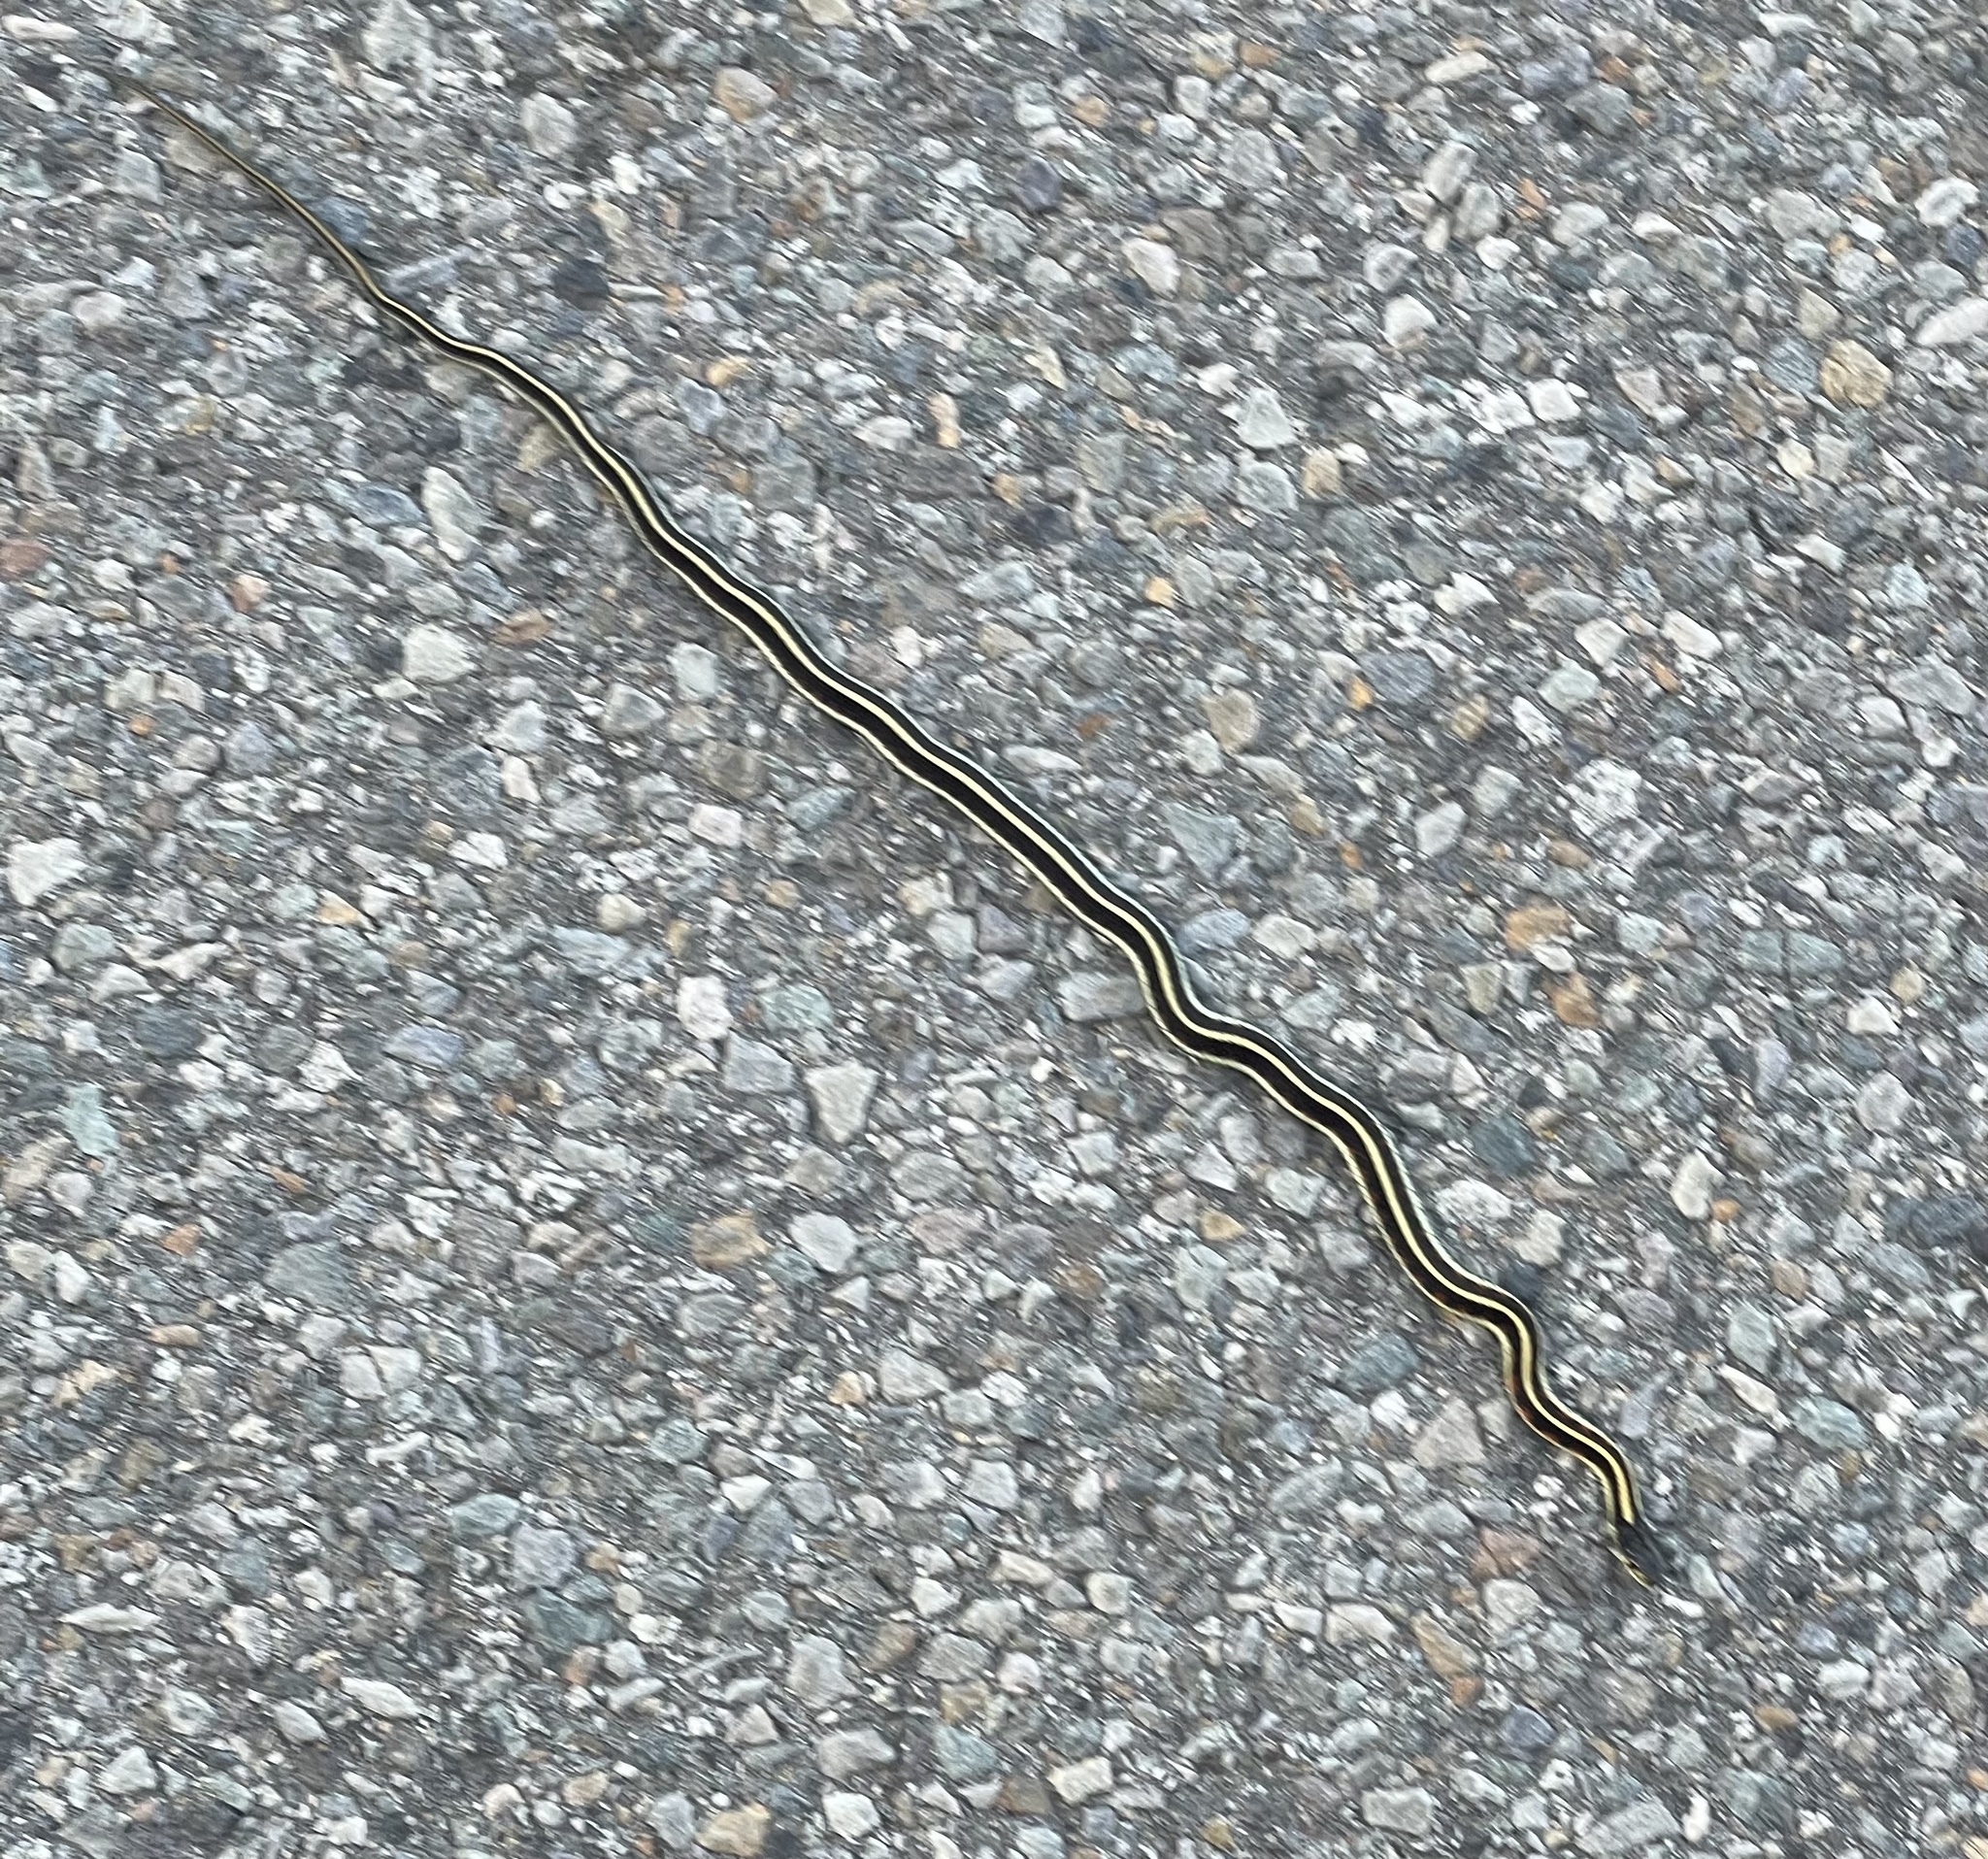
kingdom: Animalia
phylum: Chordata
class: Squamata
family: Colubridae
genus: Thamnophis
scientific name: Thamnophis sirtalis
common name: Common garter snake
